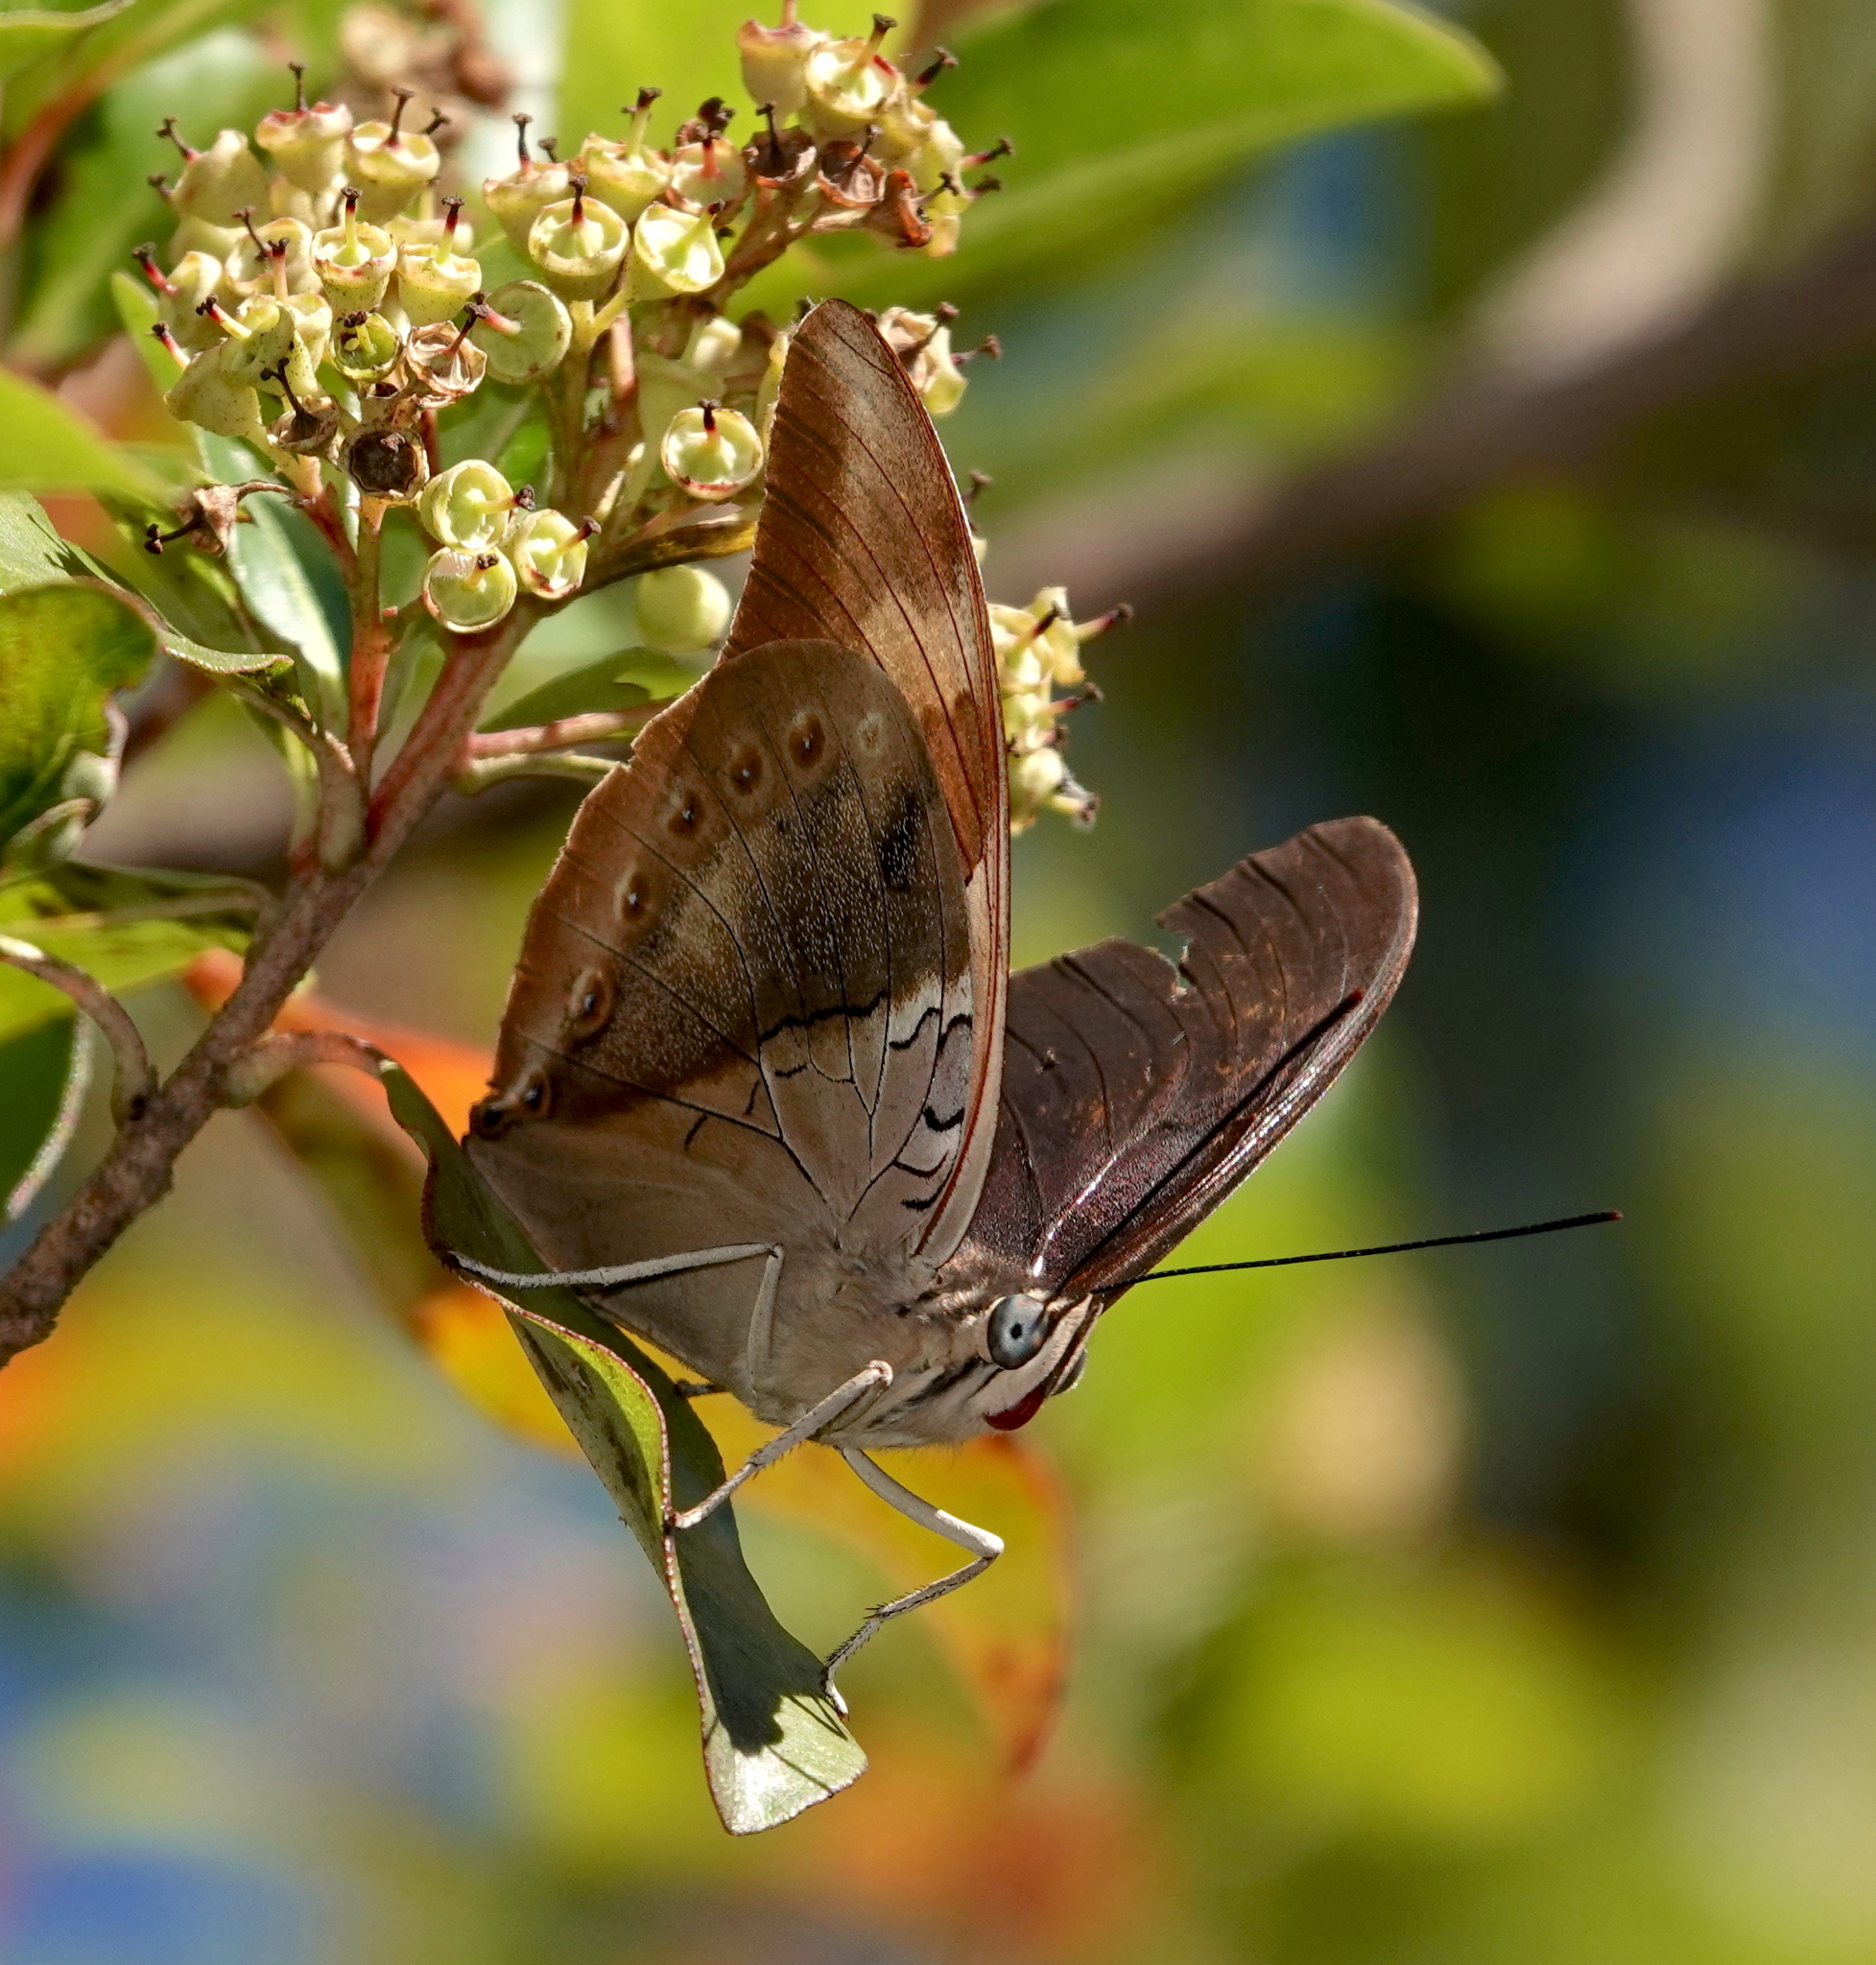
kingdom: Animalia
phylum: Arthropoda
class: Insecta
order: Lepidoptera
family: Nymphalidae
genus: Prepona
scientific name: Prepona
